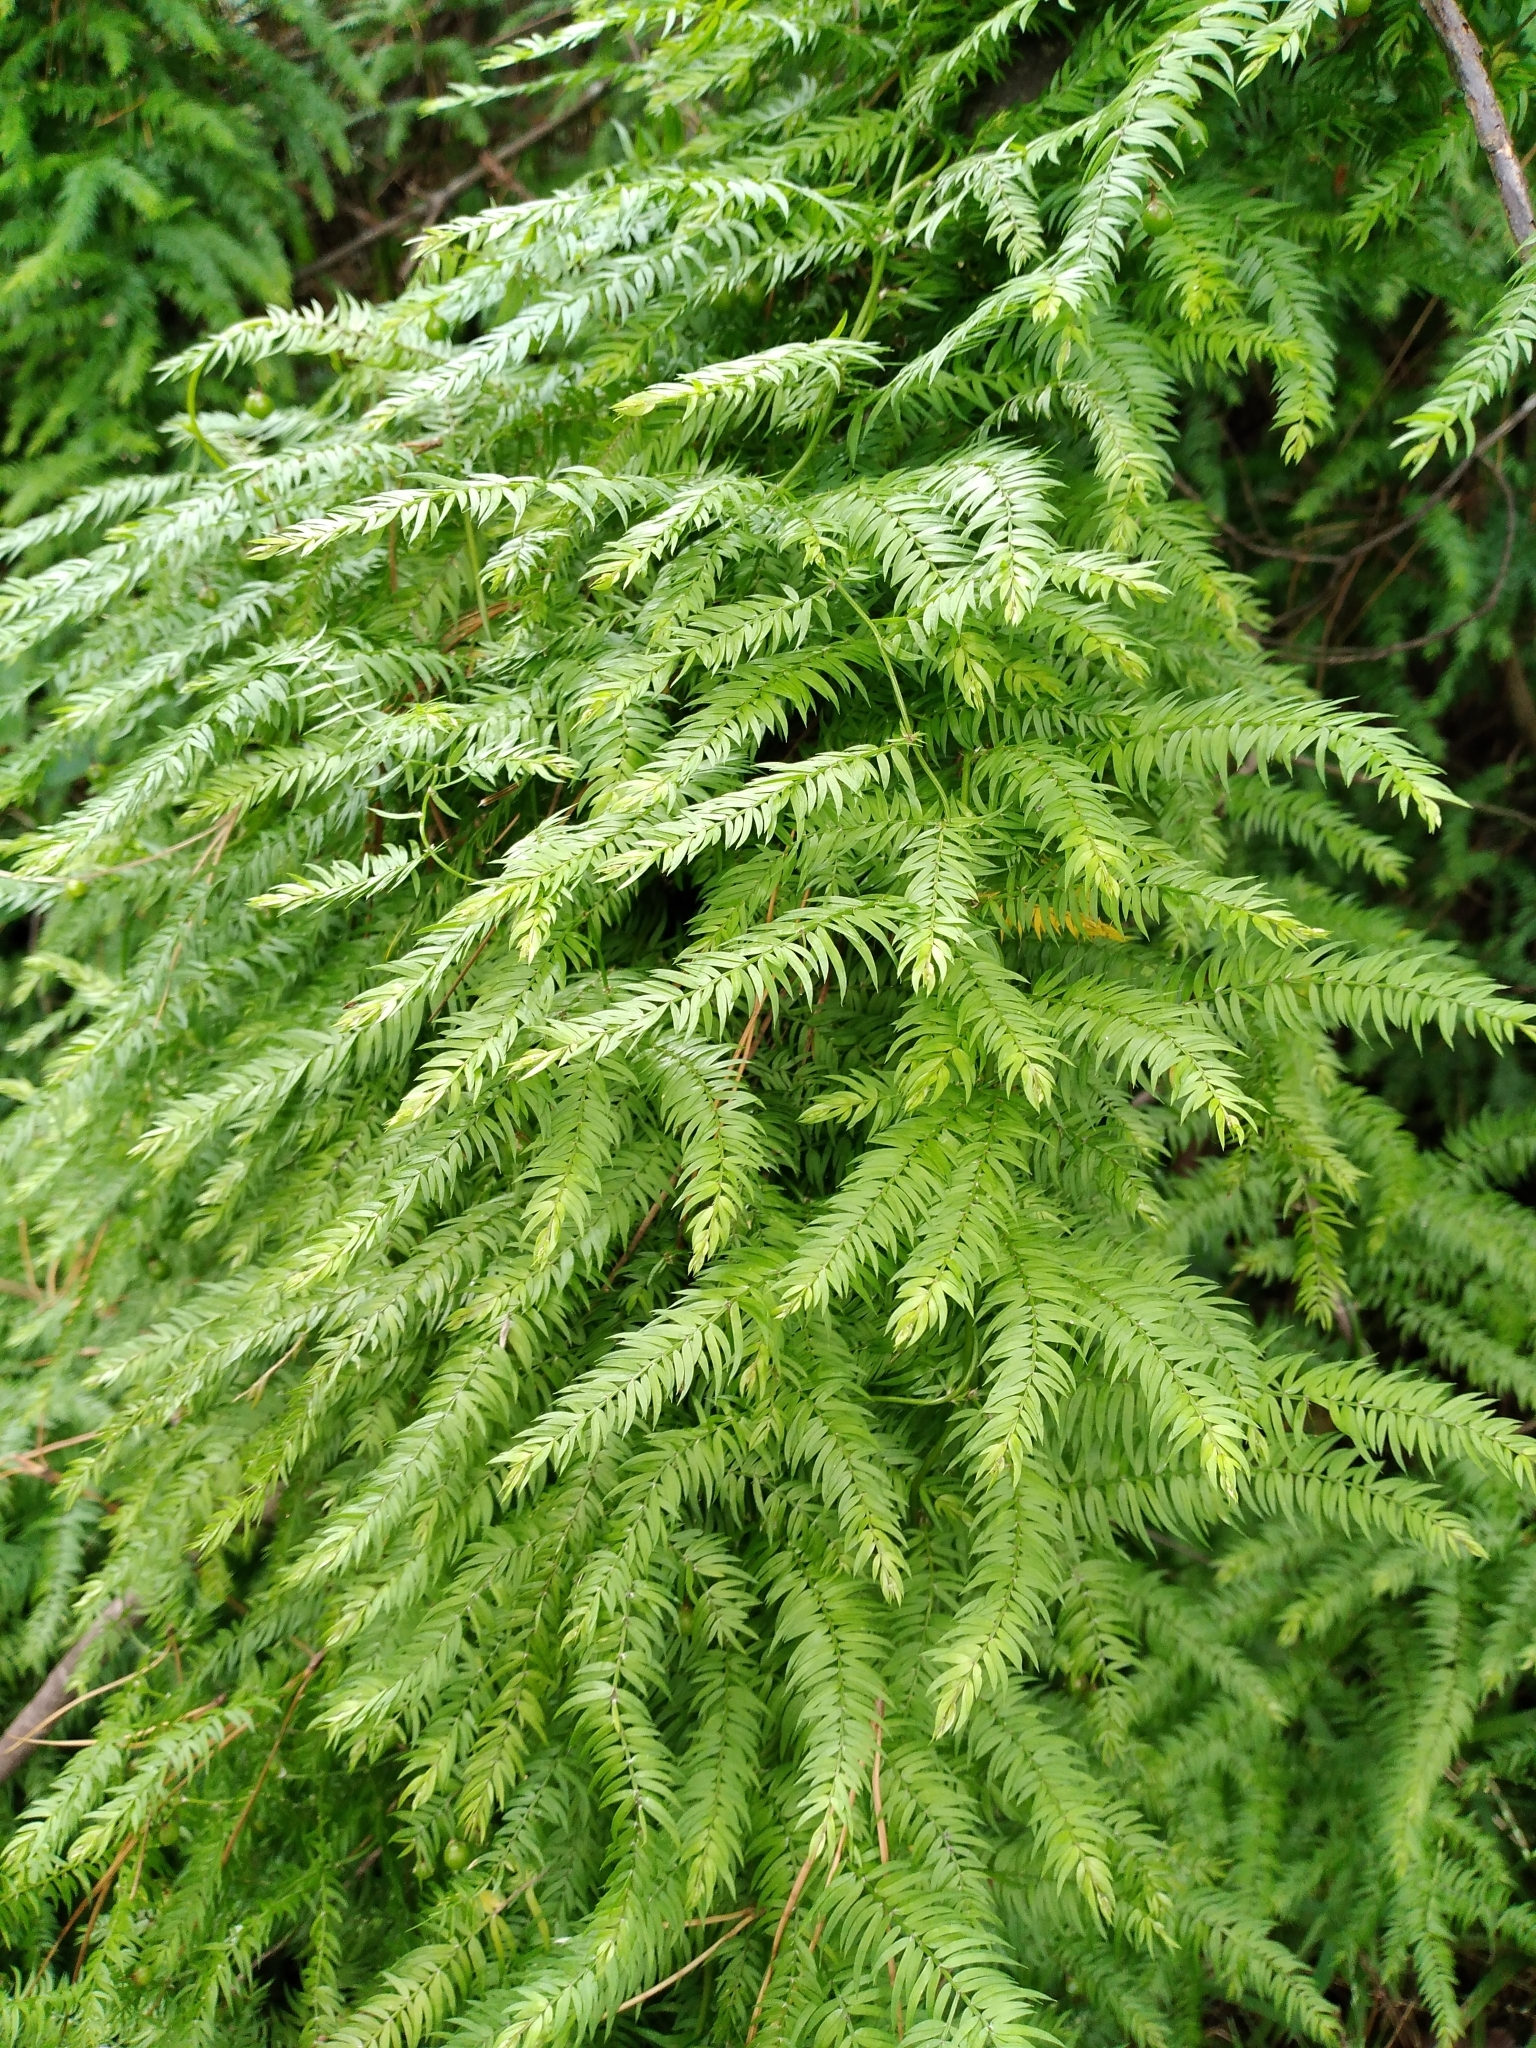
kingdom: Plantae
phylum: Tracheophyta
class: Liliopsida
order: Asparagales
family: Asparagaceae
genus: Asparagus
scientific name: Asparagus scandens
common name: Asparagus-fern
